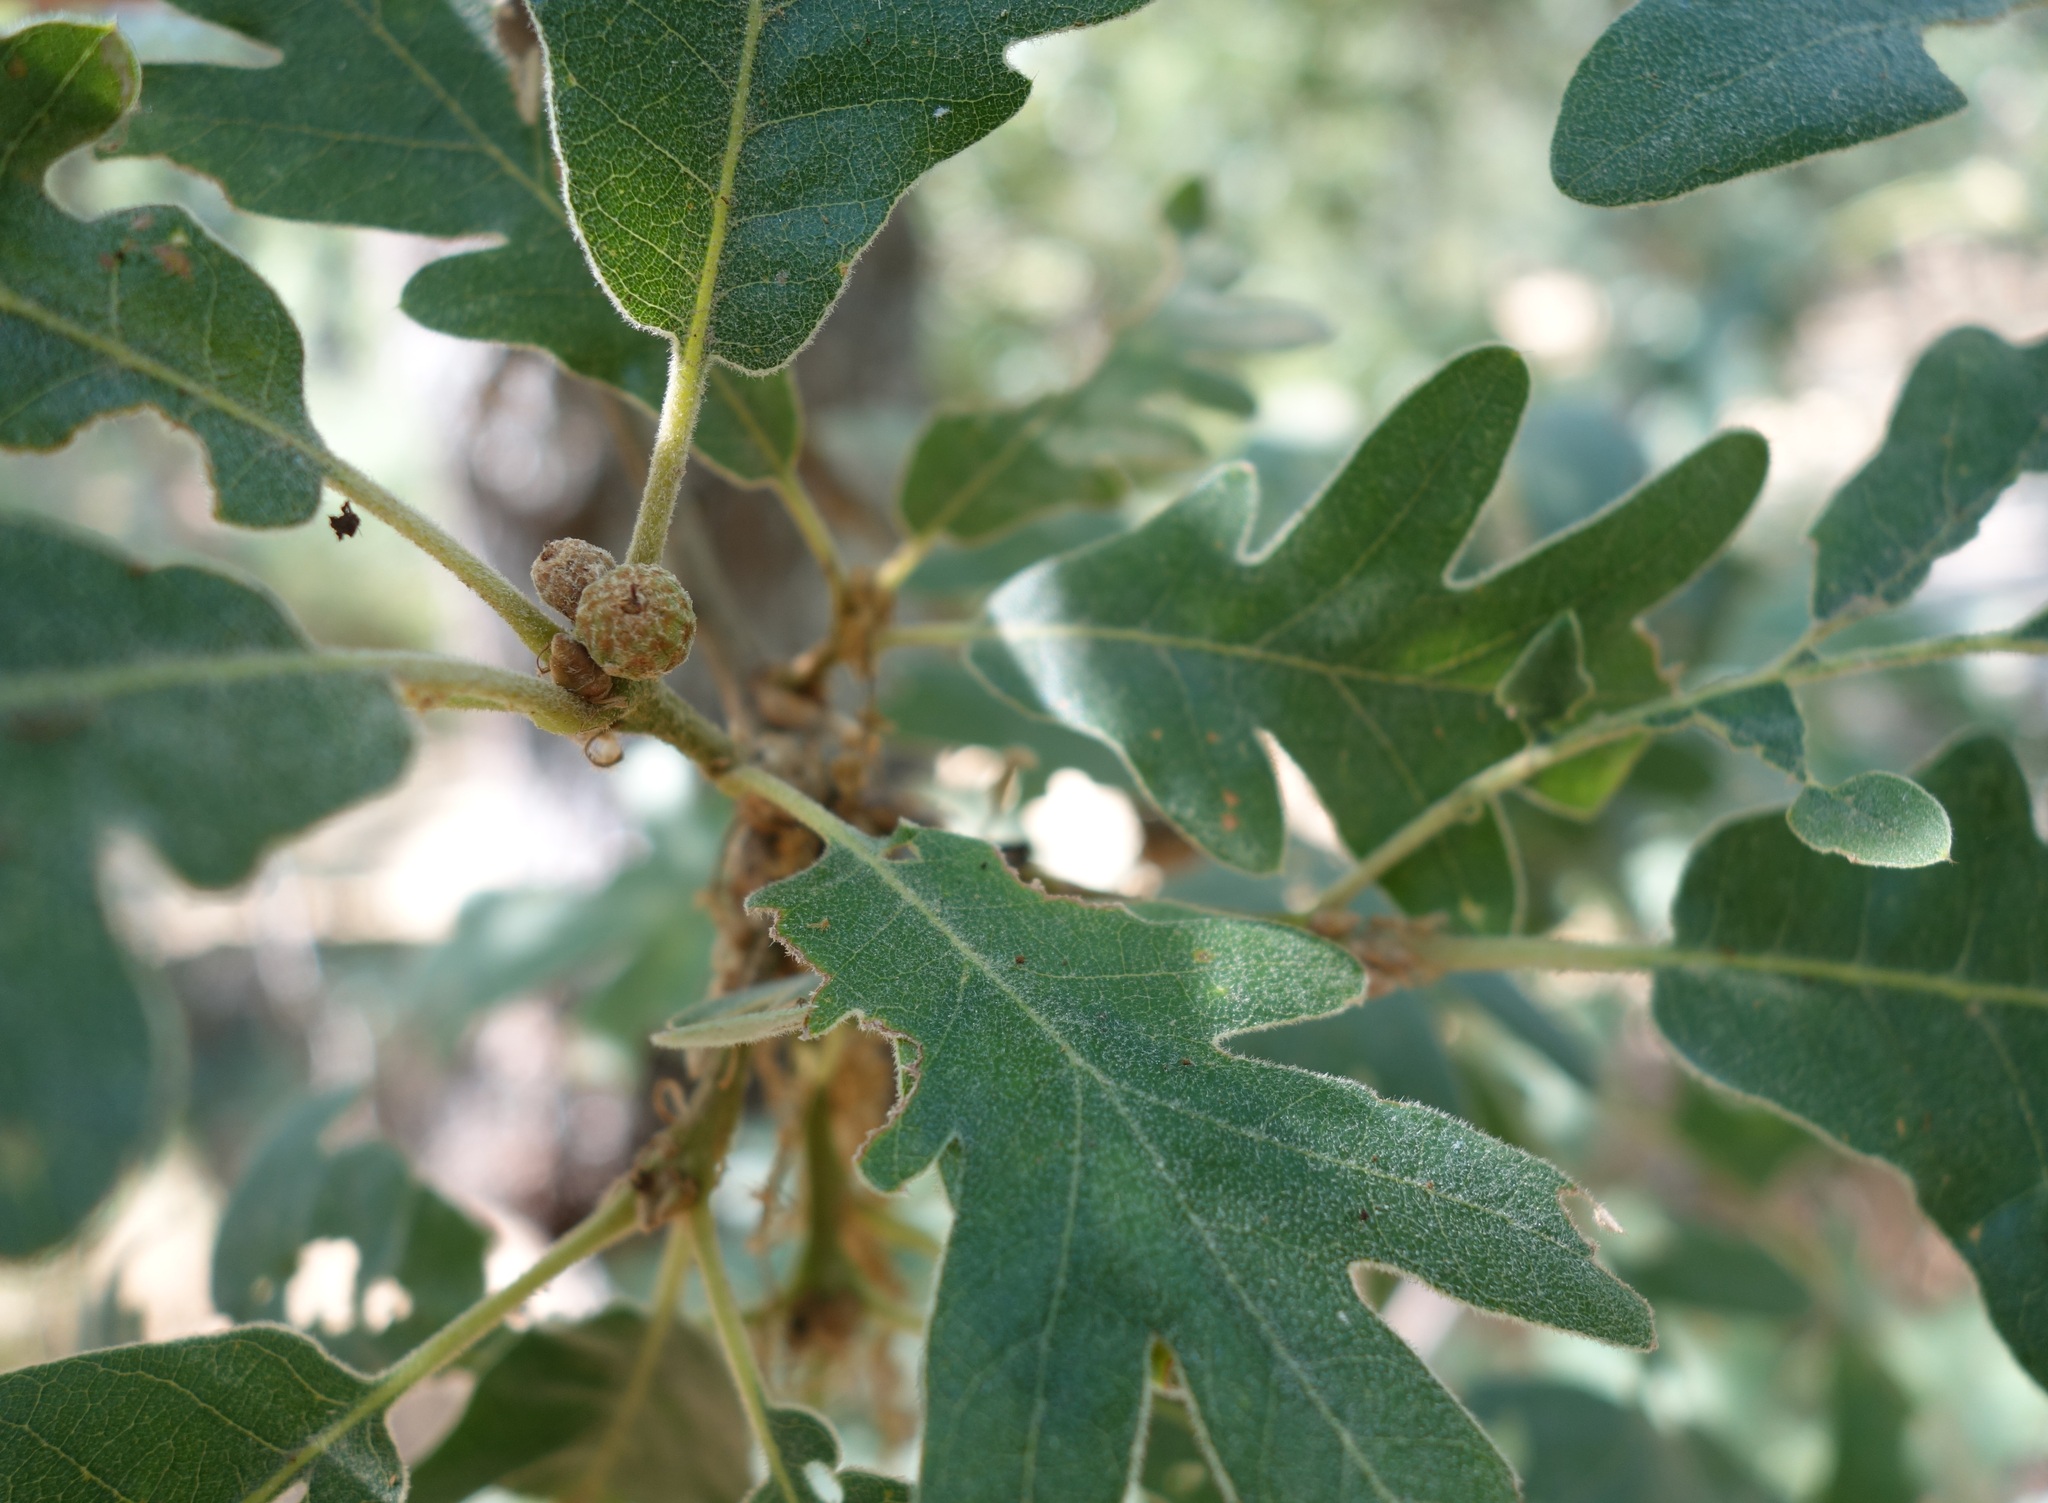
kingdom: Plantae
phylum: Tracheophyta
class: Magnoliopsida
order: Fagales
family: Fagaceae
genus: Quercus
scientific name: Quercus pyrenaica
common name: Pyrenean oak
